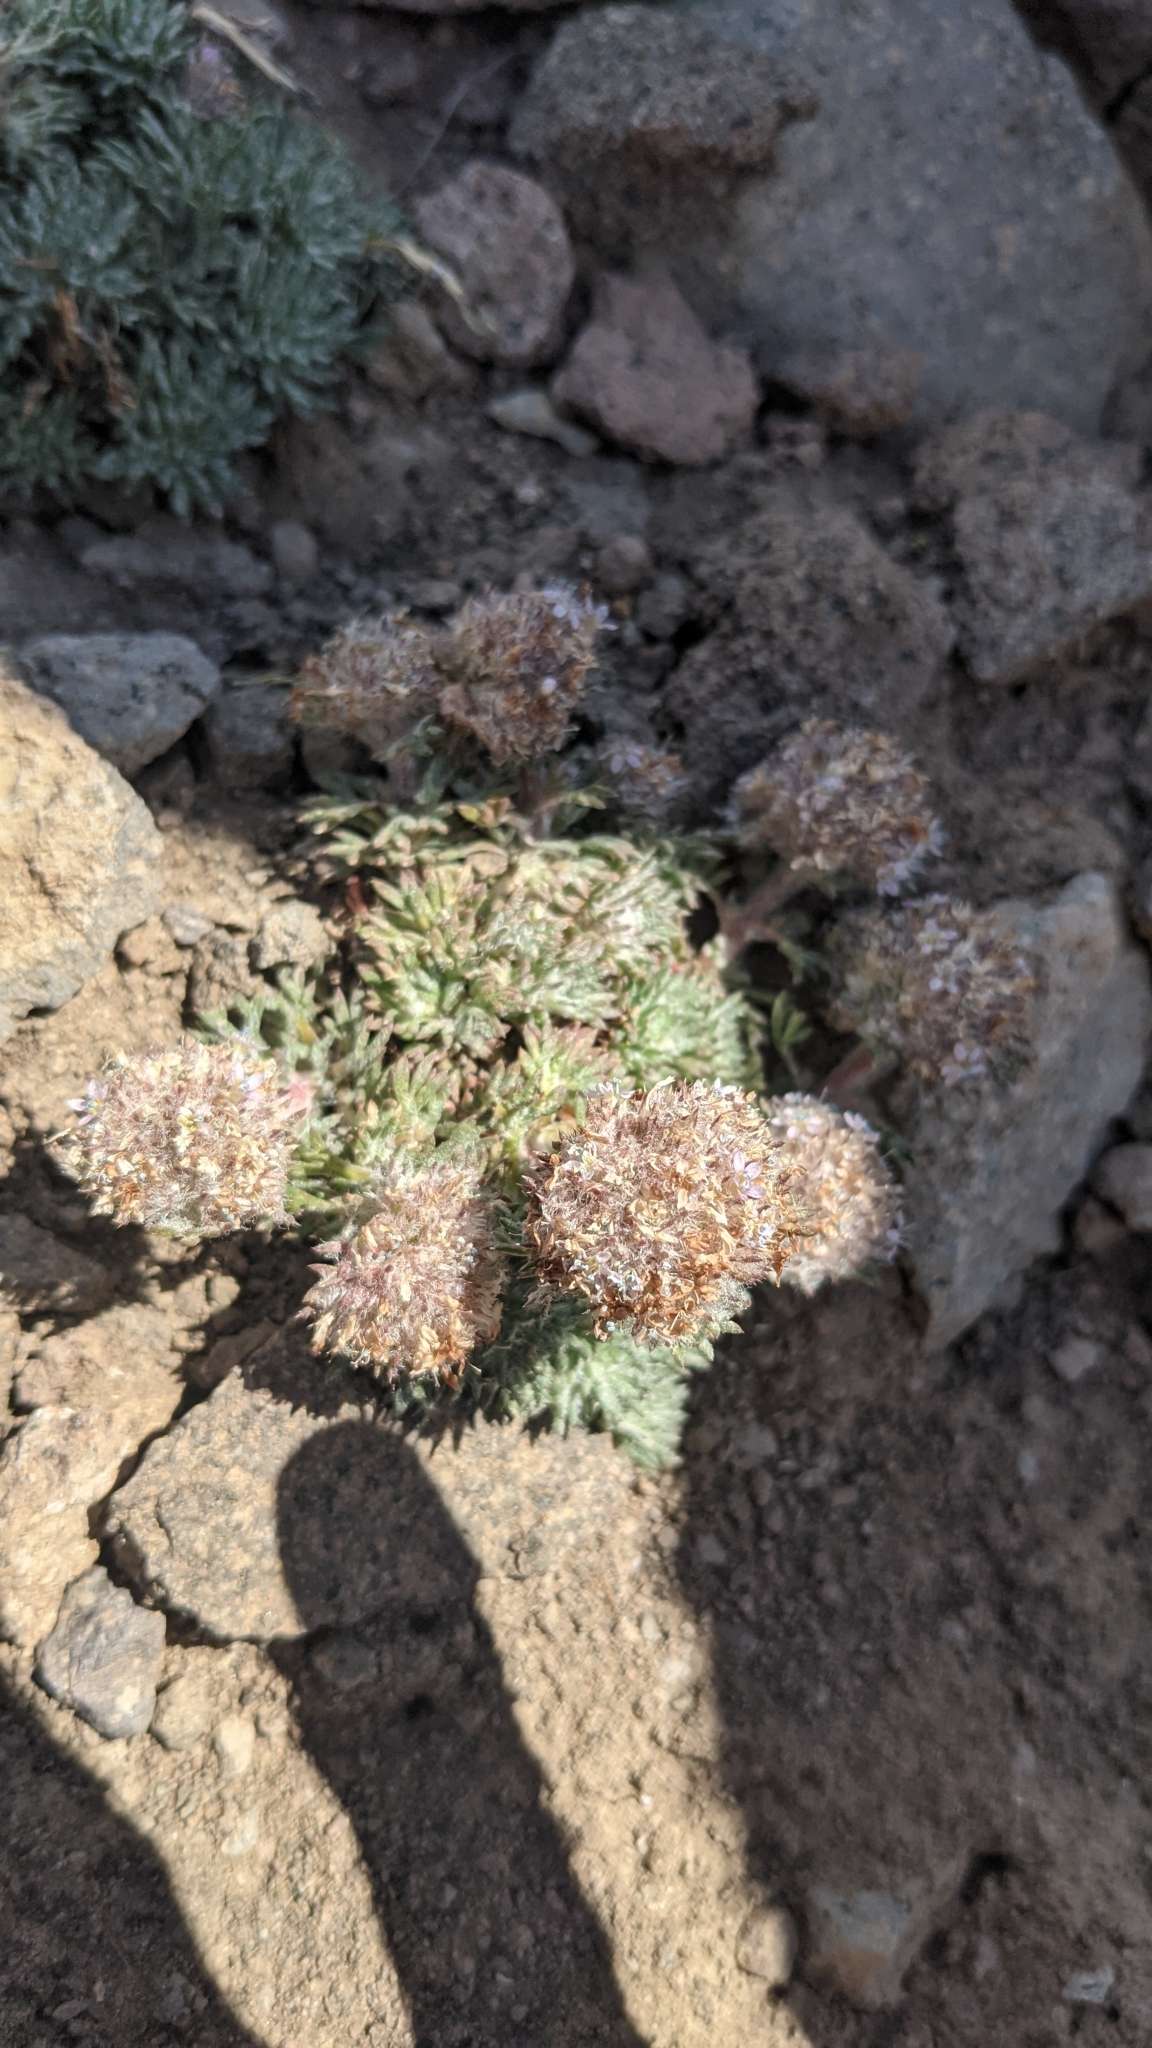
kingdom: Plantae
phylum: Tracheophyta
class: Magnoliopsida
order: Ericales
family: Polemoniaceae
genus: Ipomopsis
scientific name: Ipomopsis congesta
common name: Ball-head gilia
